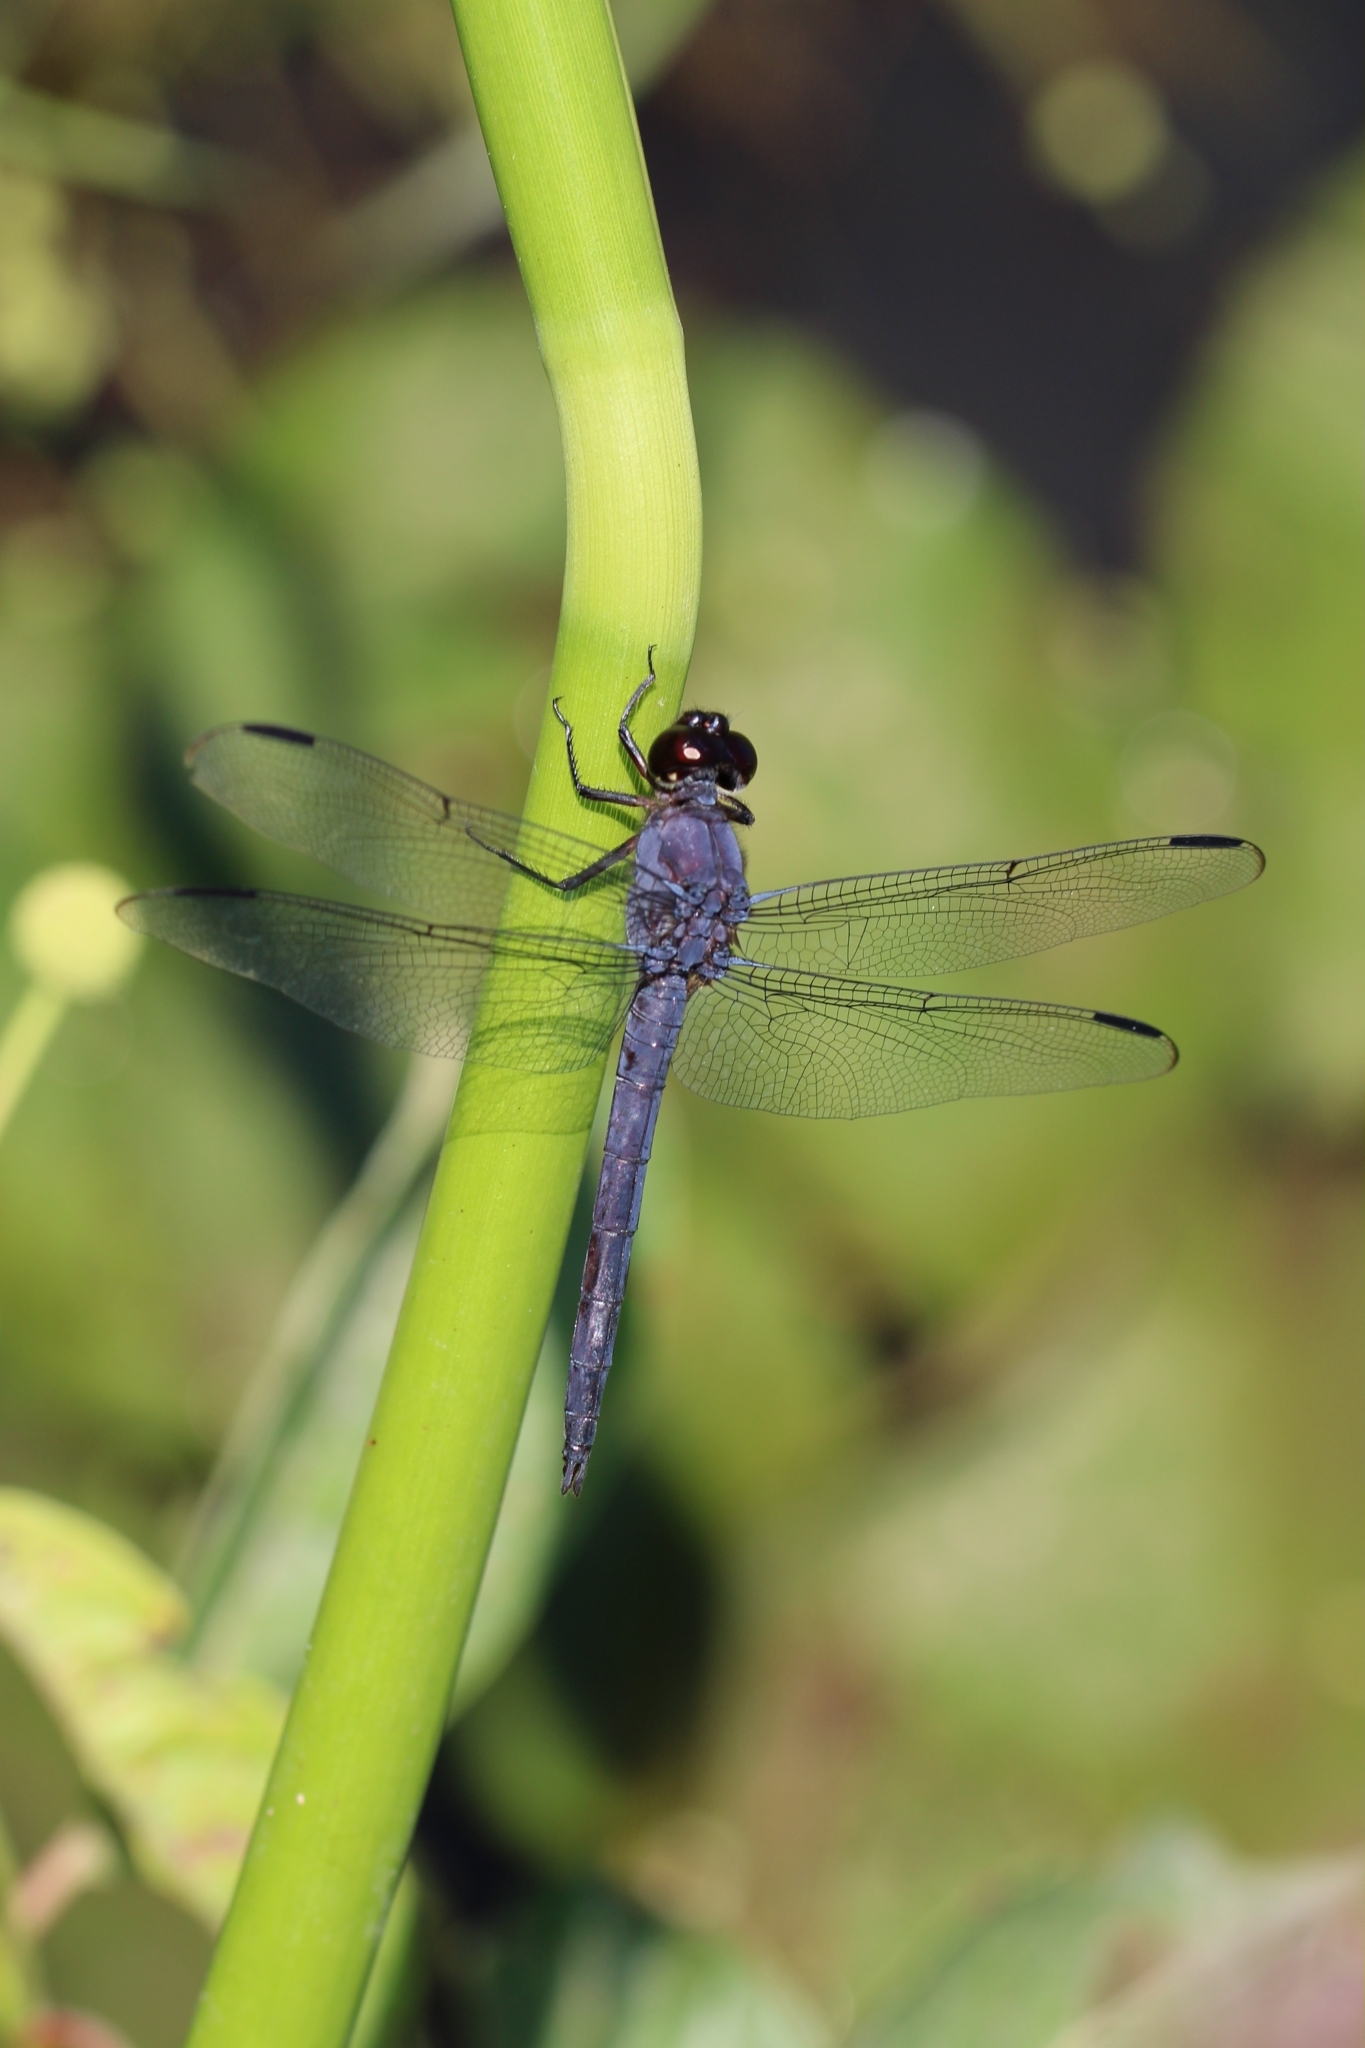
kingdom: Animalia
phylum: Arthropoda
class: Insecta
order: Odonata
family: Libellulidae
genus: Libellula
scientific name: Libellula incesta
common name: Slaty skimmer
